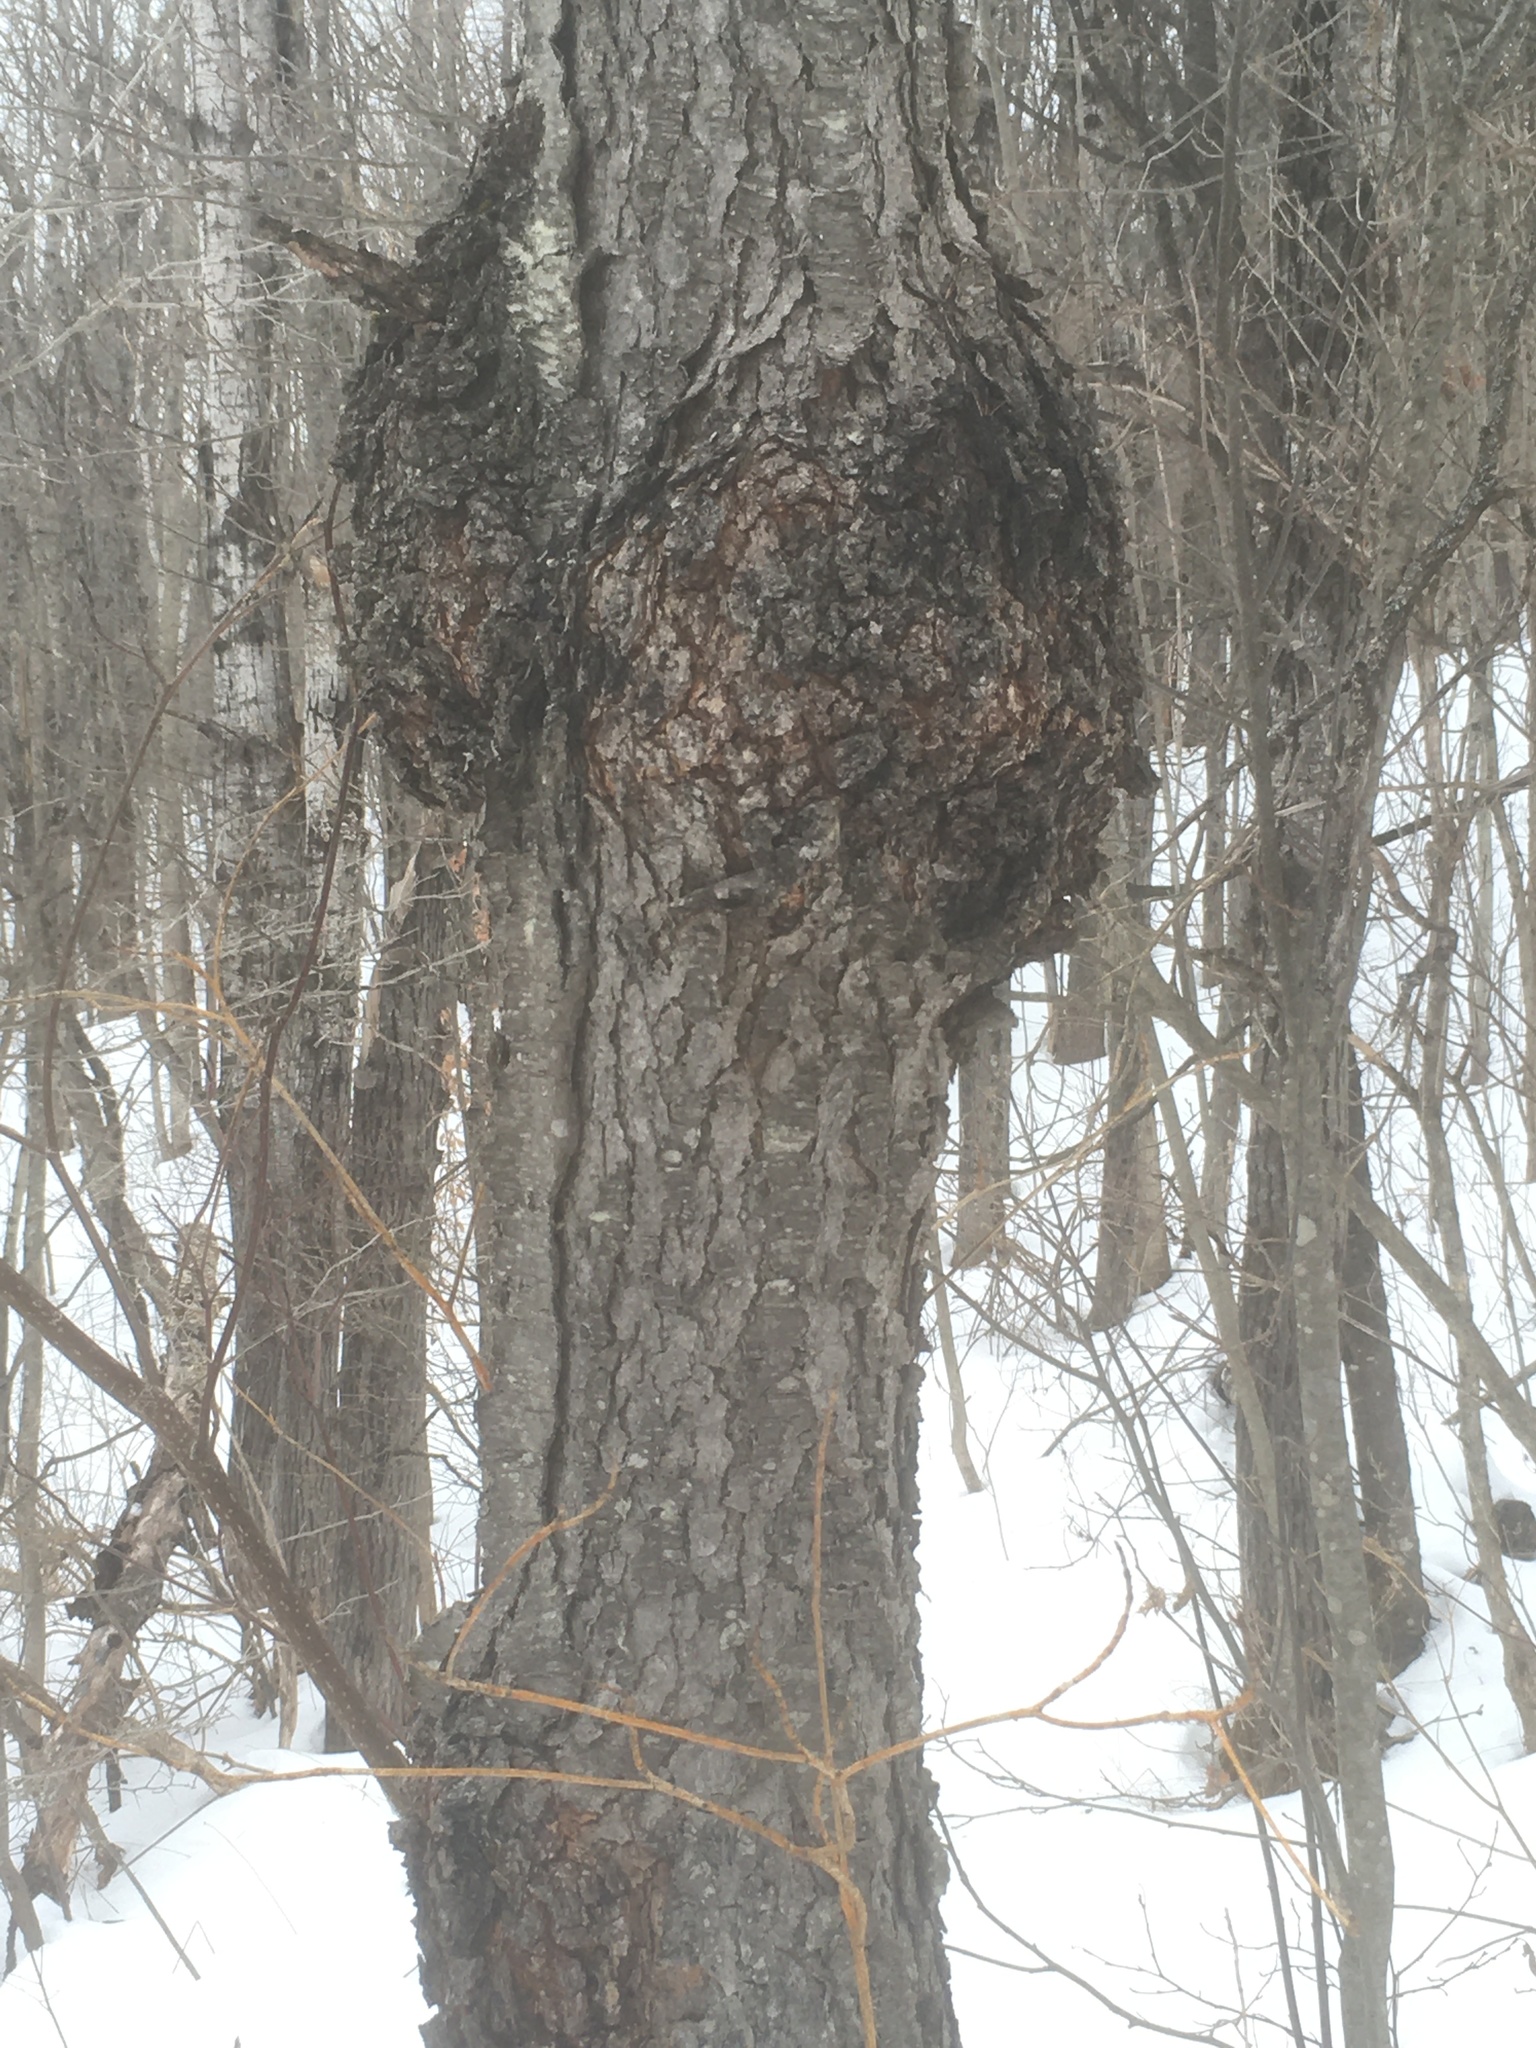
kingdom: Plantae
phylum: Tracheophyta
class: Magnoliopsida
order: Rosales
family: Rosaceae
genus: Prunus
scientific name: Prunus serotina
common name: Black cherry
